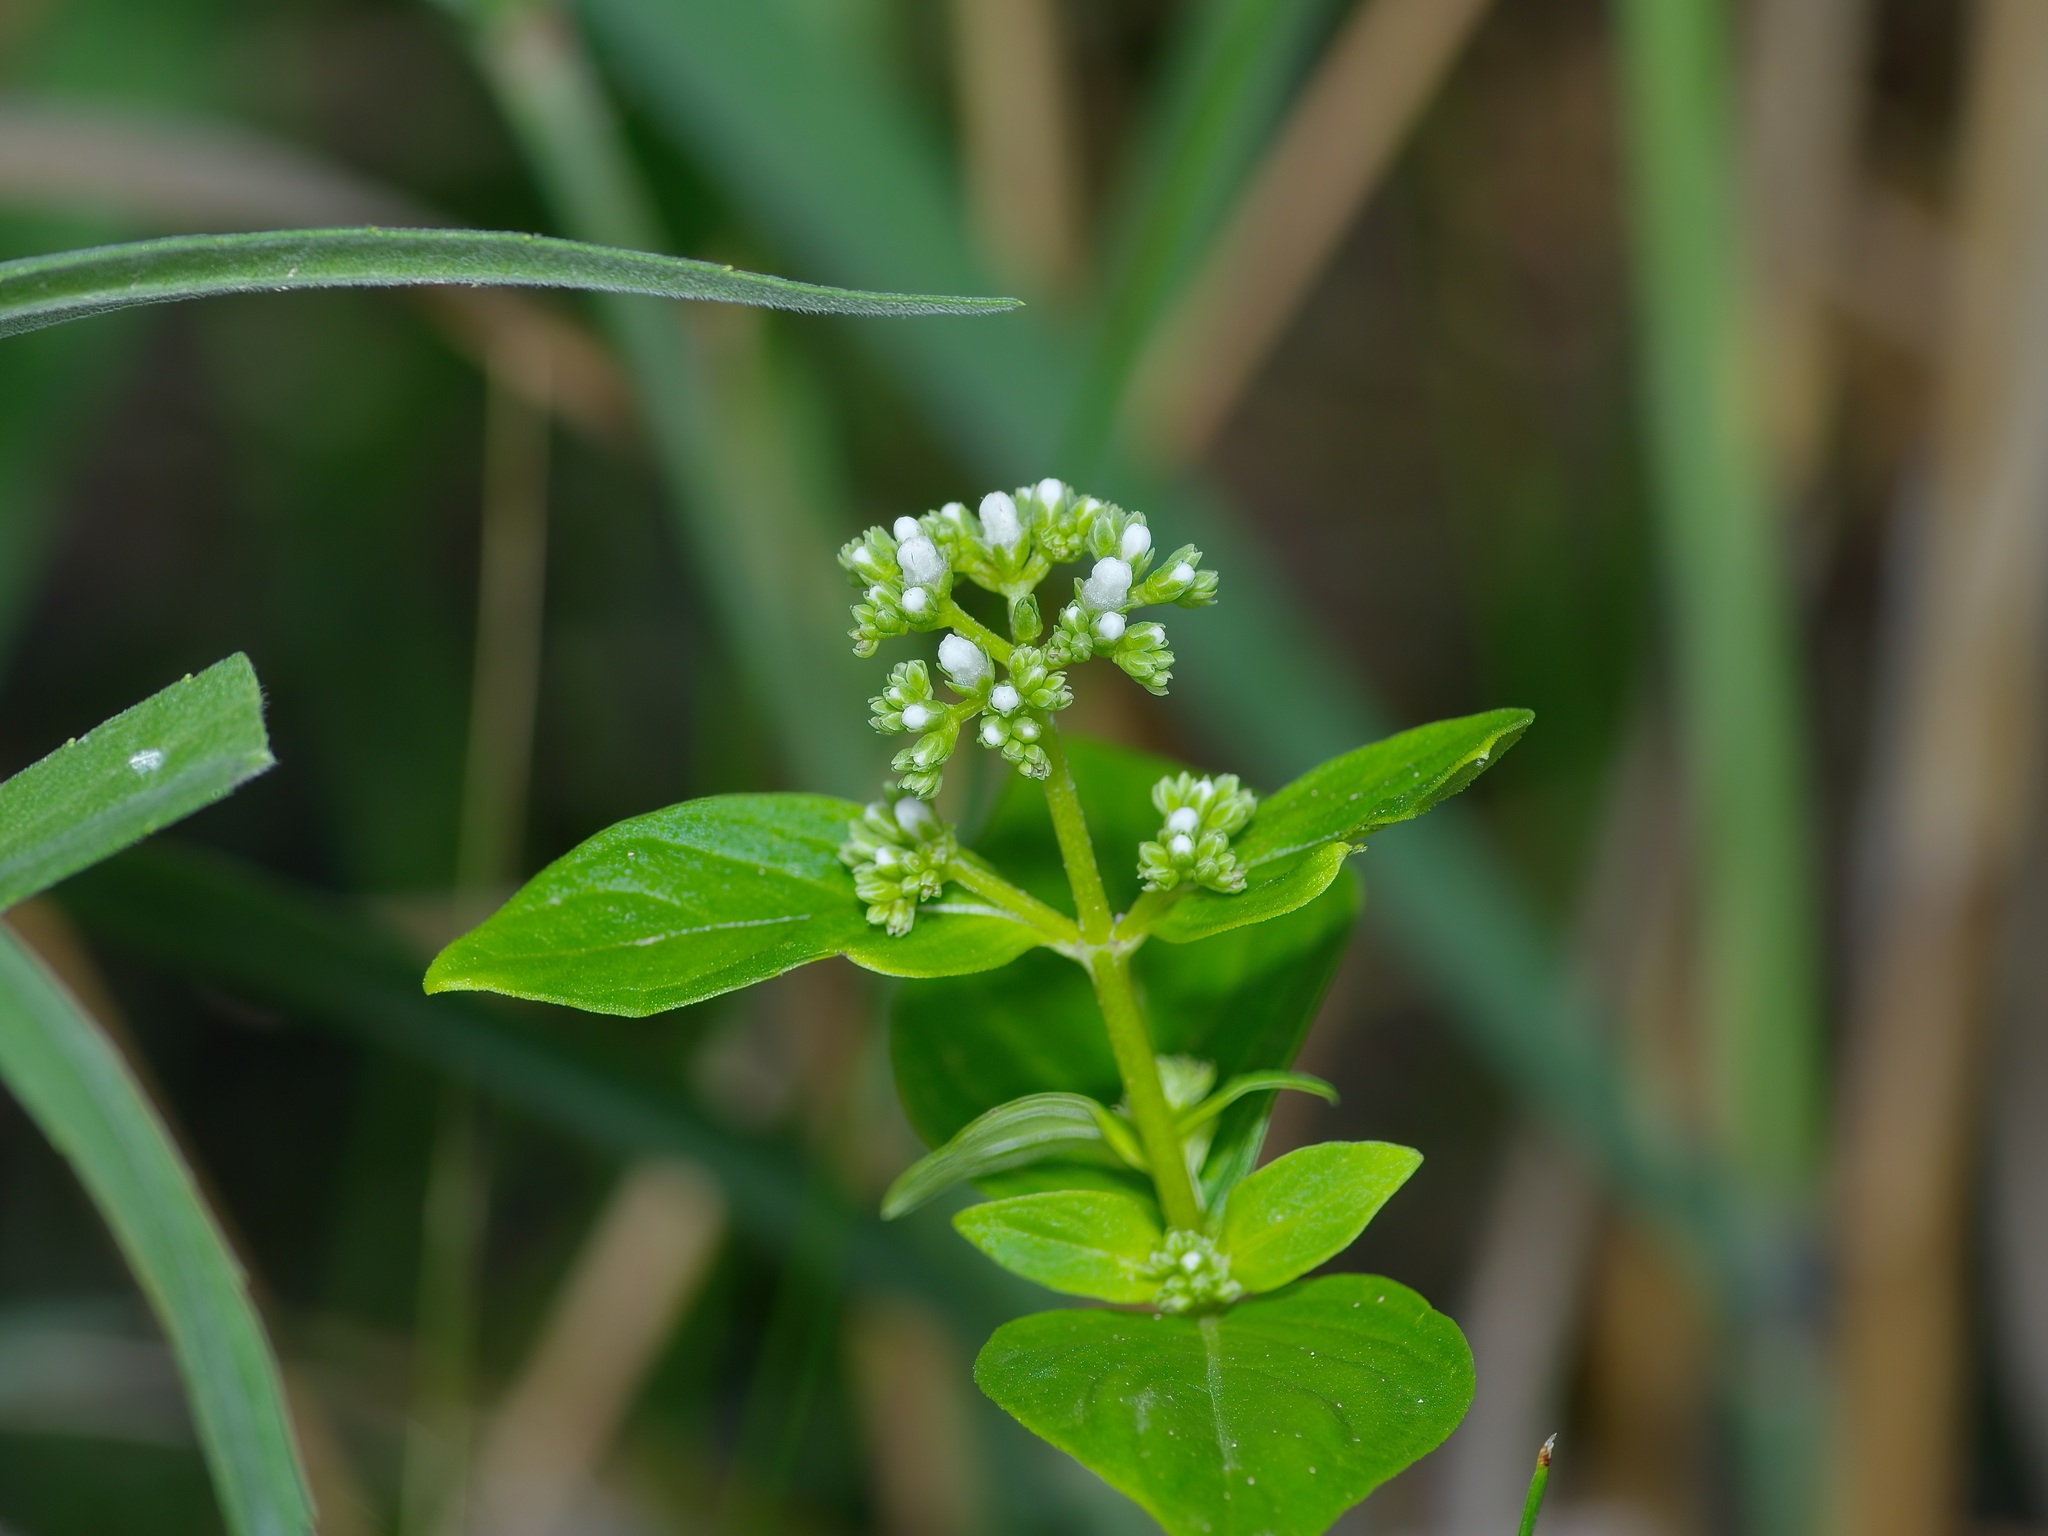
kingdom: Plantae
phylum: Tracheophyta
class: Magnoliopsida
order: Gentianales
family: Loganiaceae
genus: Mitreola
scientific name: Mitreola petiolata
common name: Lax hornpod
